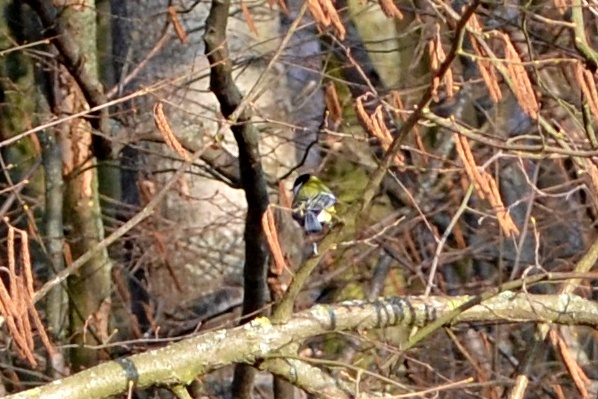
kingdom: Animalia
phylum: Chordata
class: Aves
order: Passeriformes
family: Paridae
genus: Parus
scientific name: Parus major
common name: Great tit
